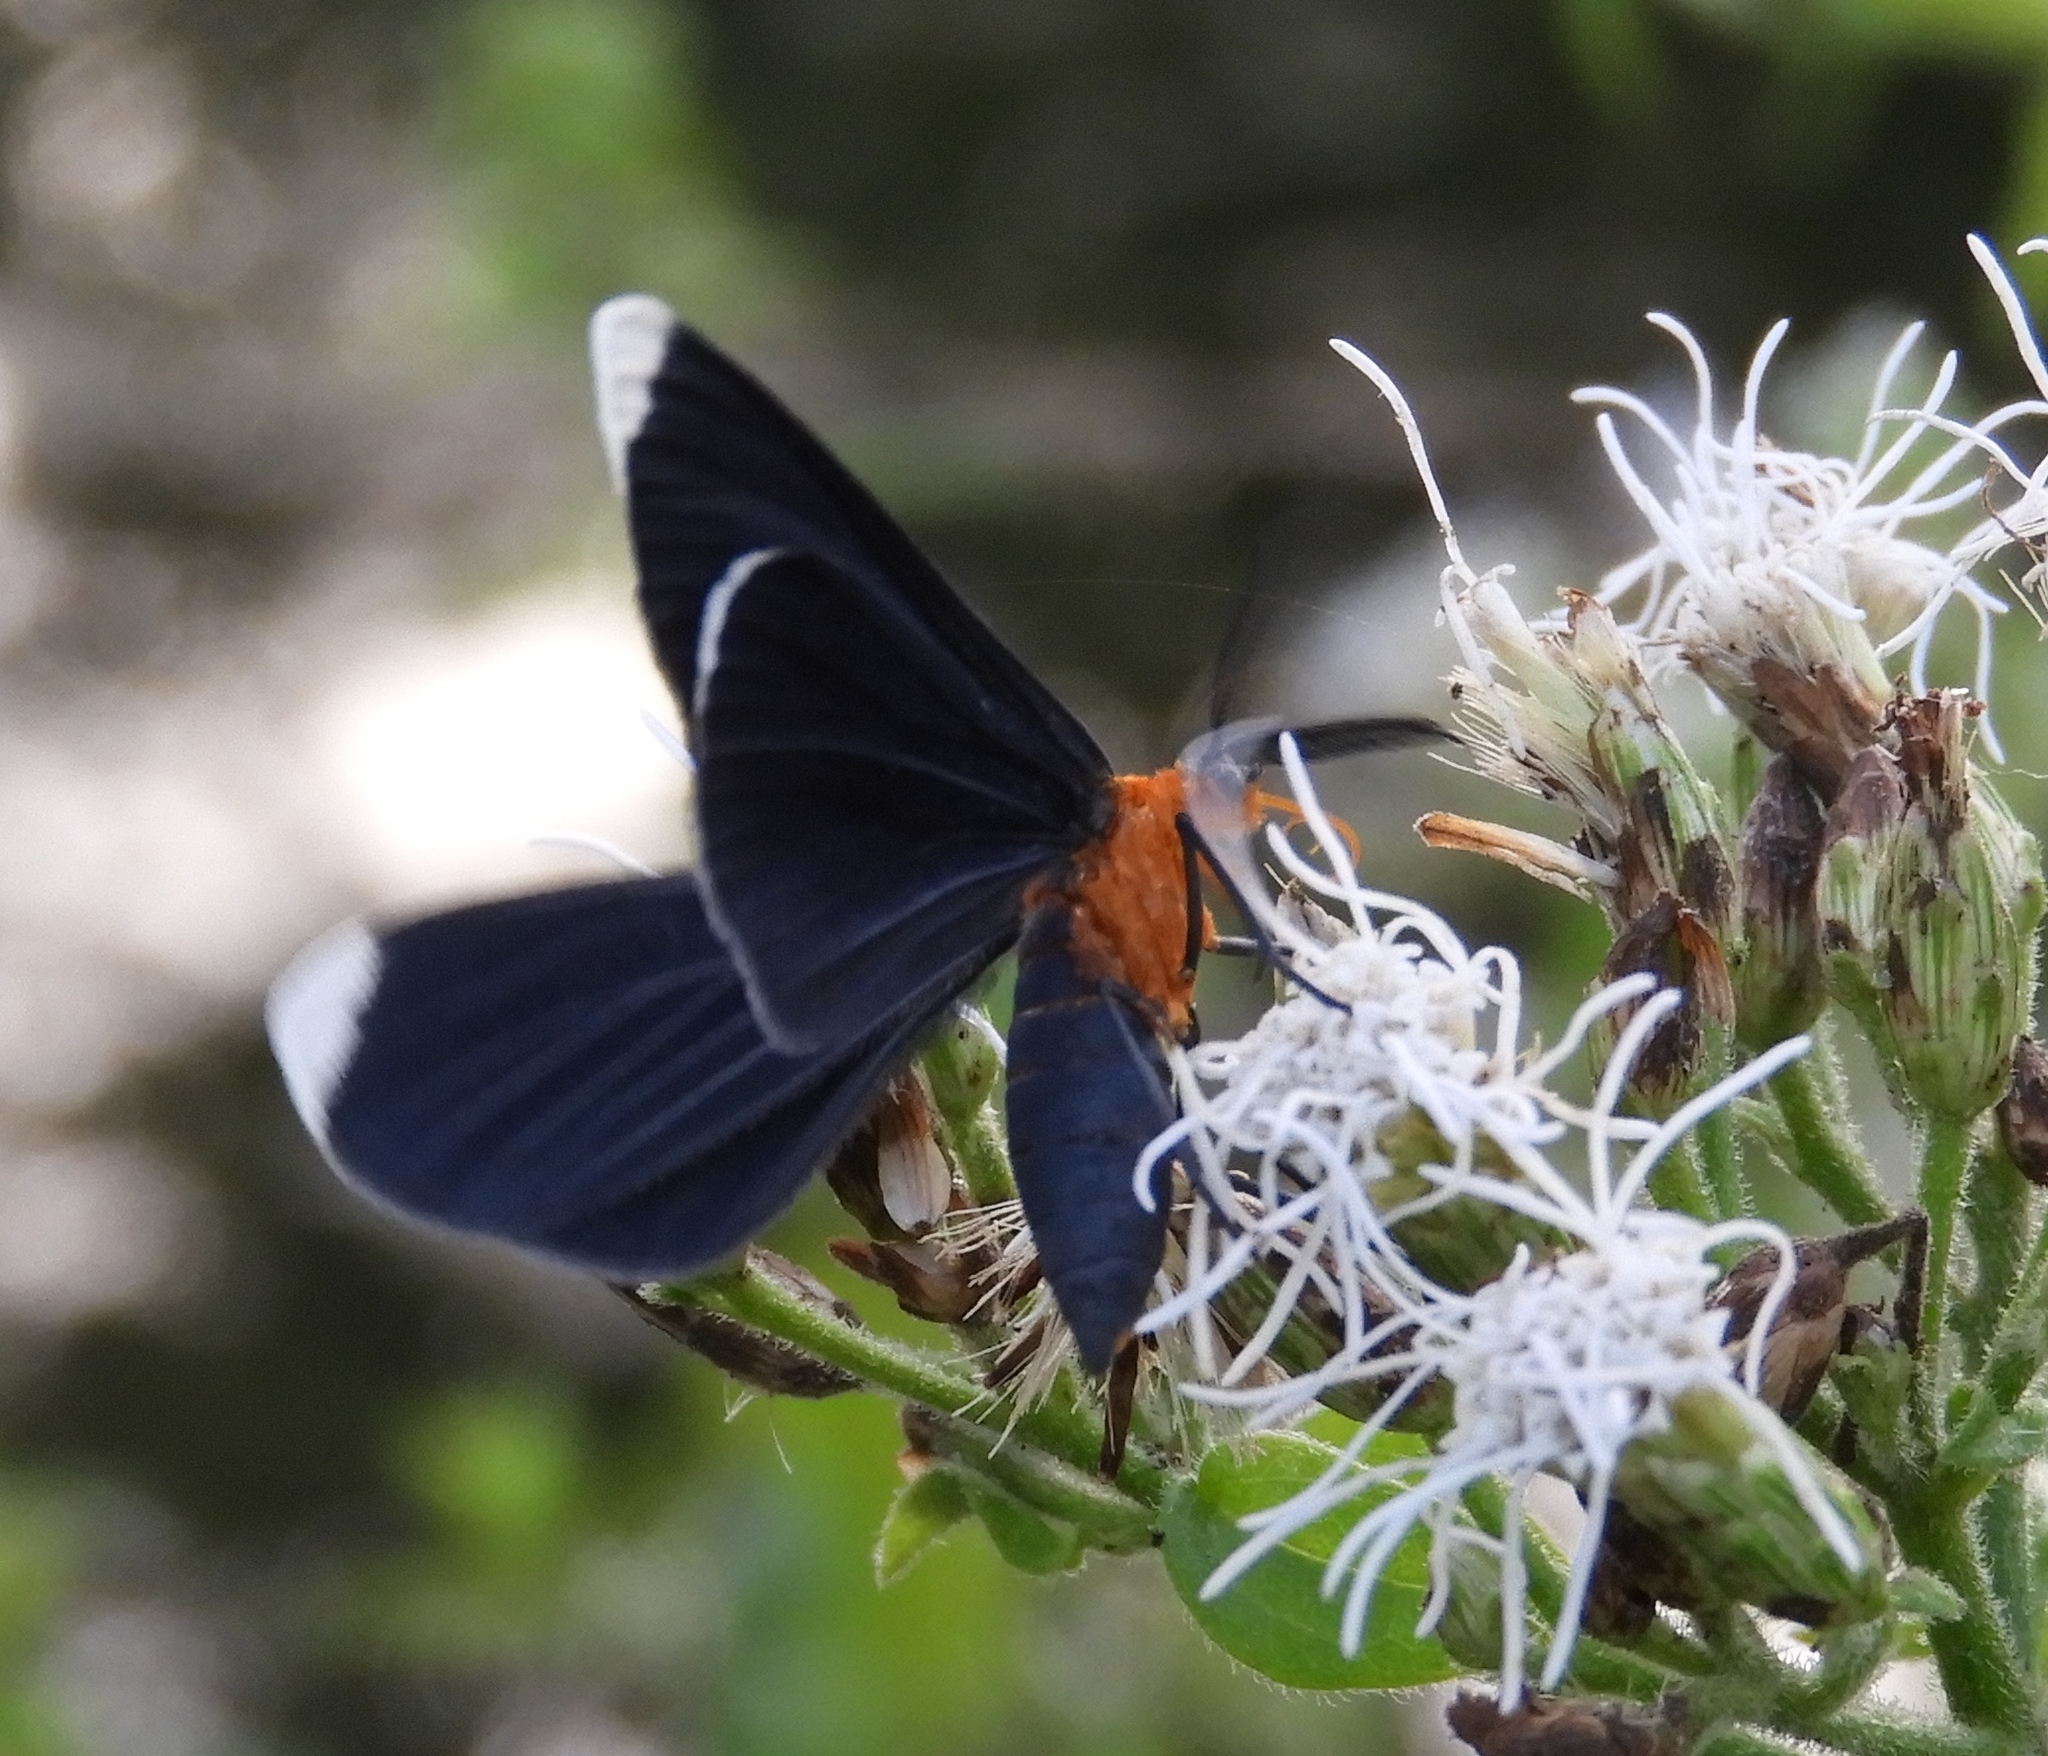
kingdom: Animalia
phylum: Arthropoda
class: Insecta
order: Lepidoptera
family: Geometridae
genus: Melanchroia
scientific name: Melanchroia chephise
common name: White-tipped black
